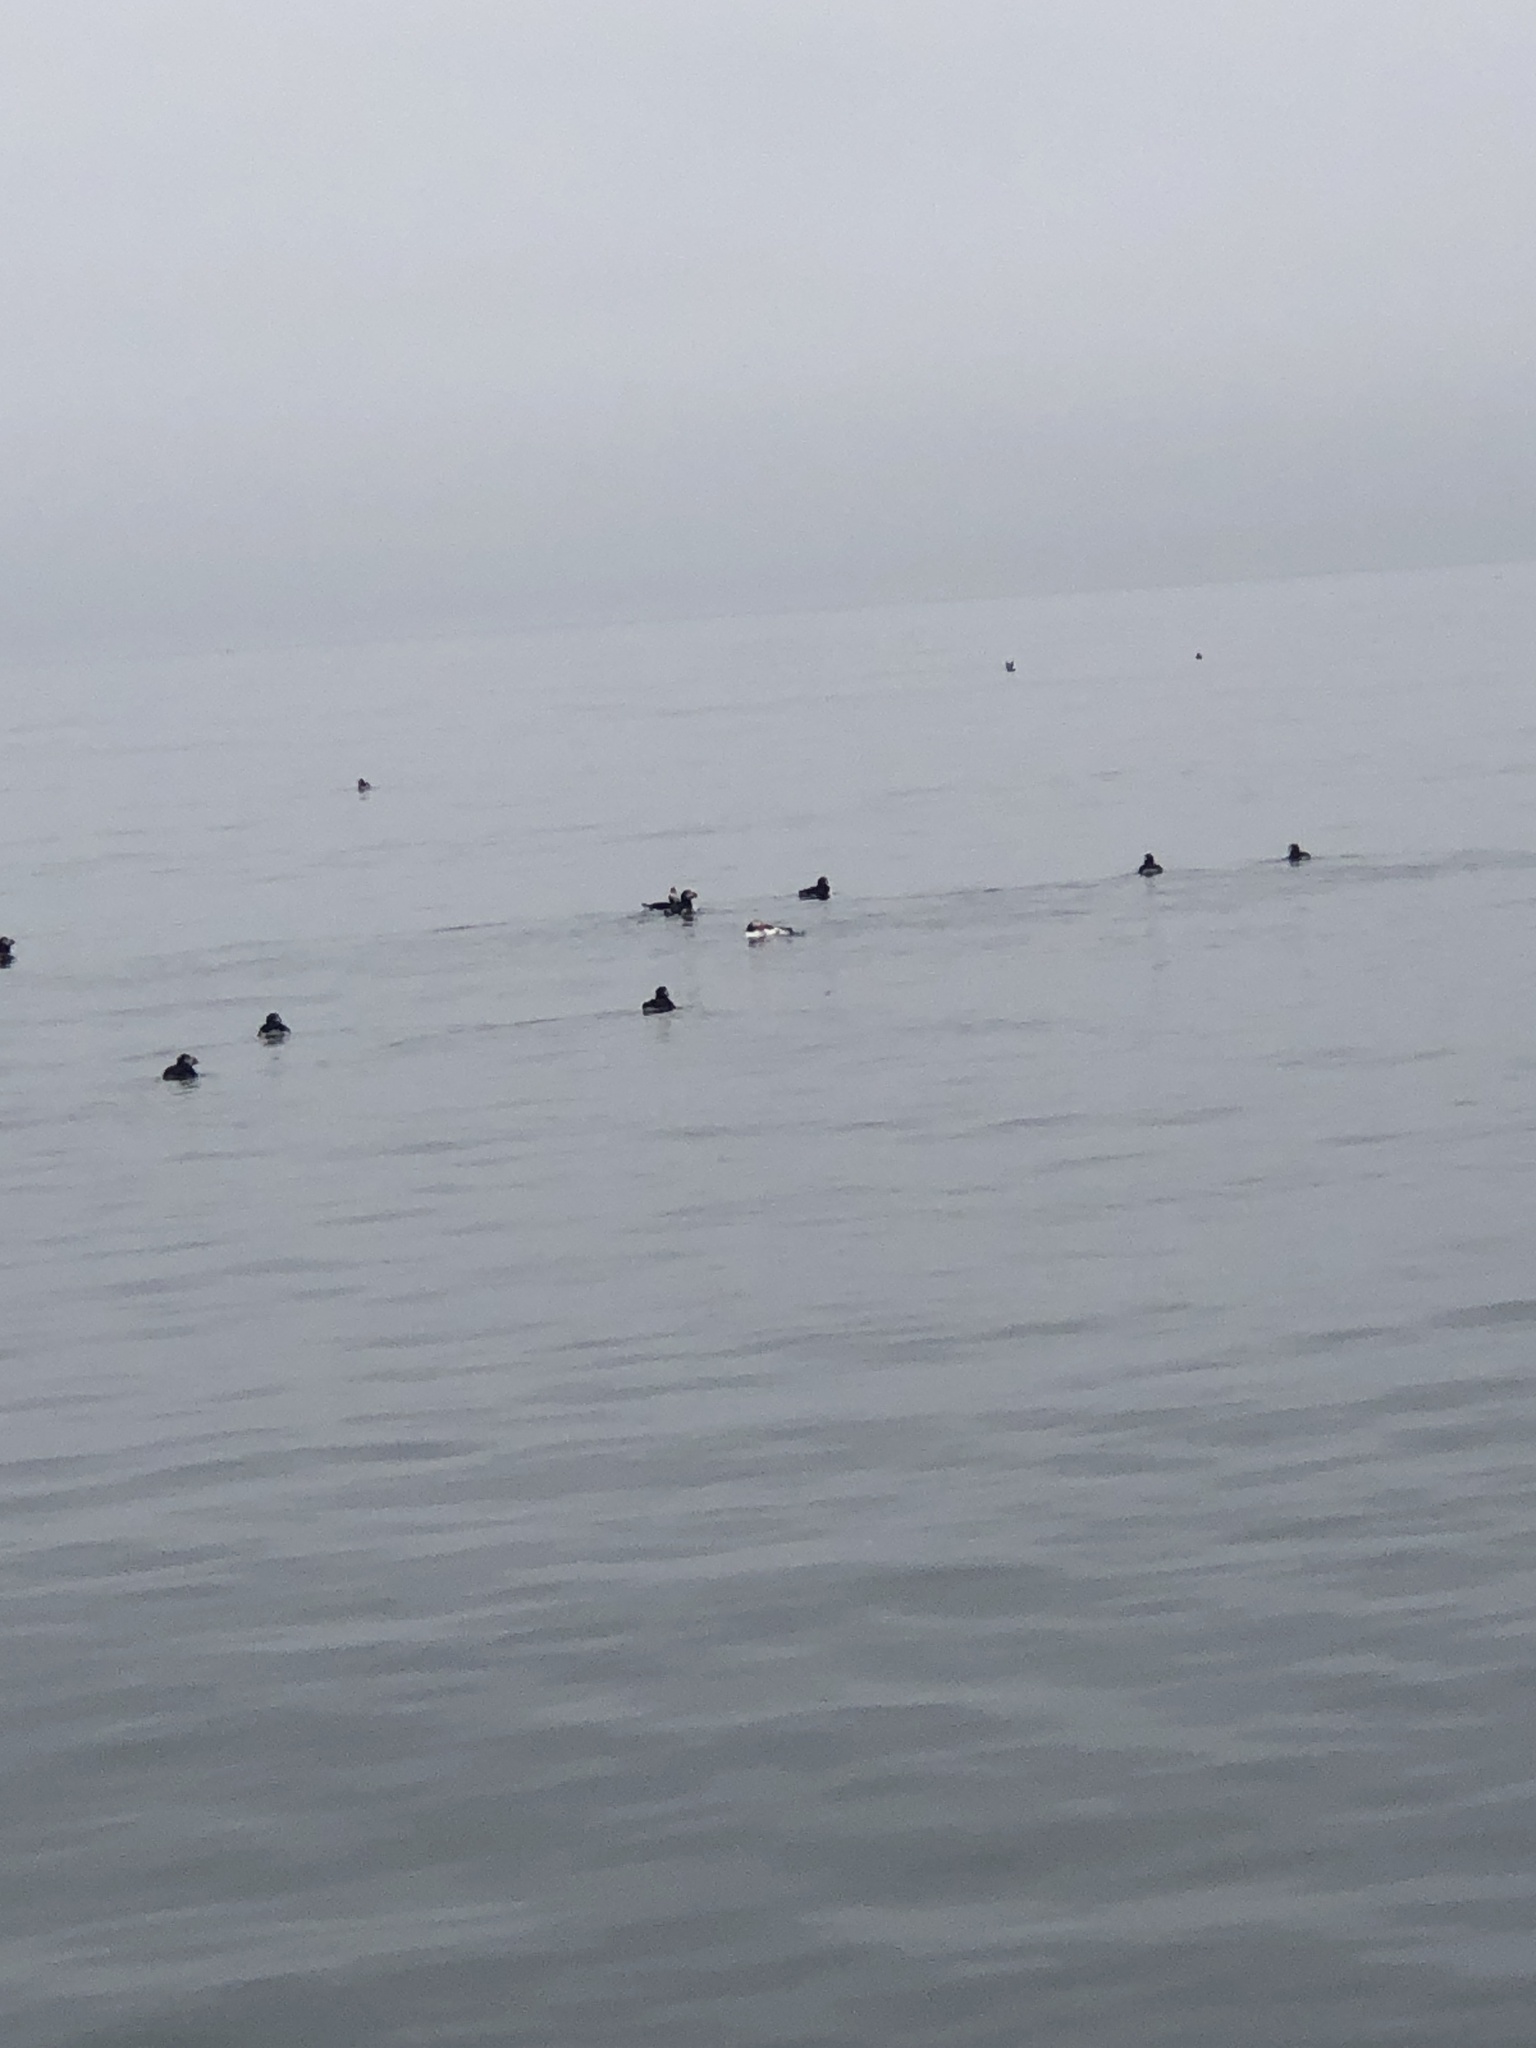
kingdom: Animalia
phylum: Chordata
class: Aves
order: Charadriiformes
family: Alcidae
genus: Fratercula
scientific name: Fratercula arctica
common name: Atlantic puffin
